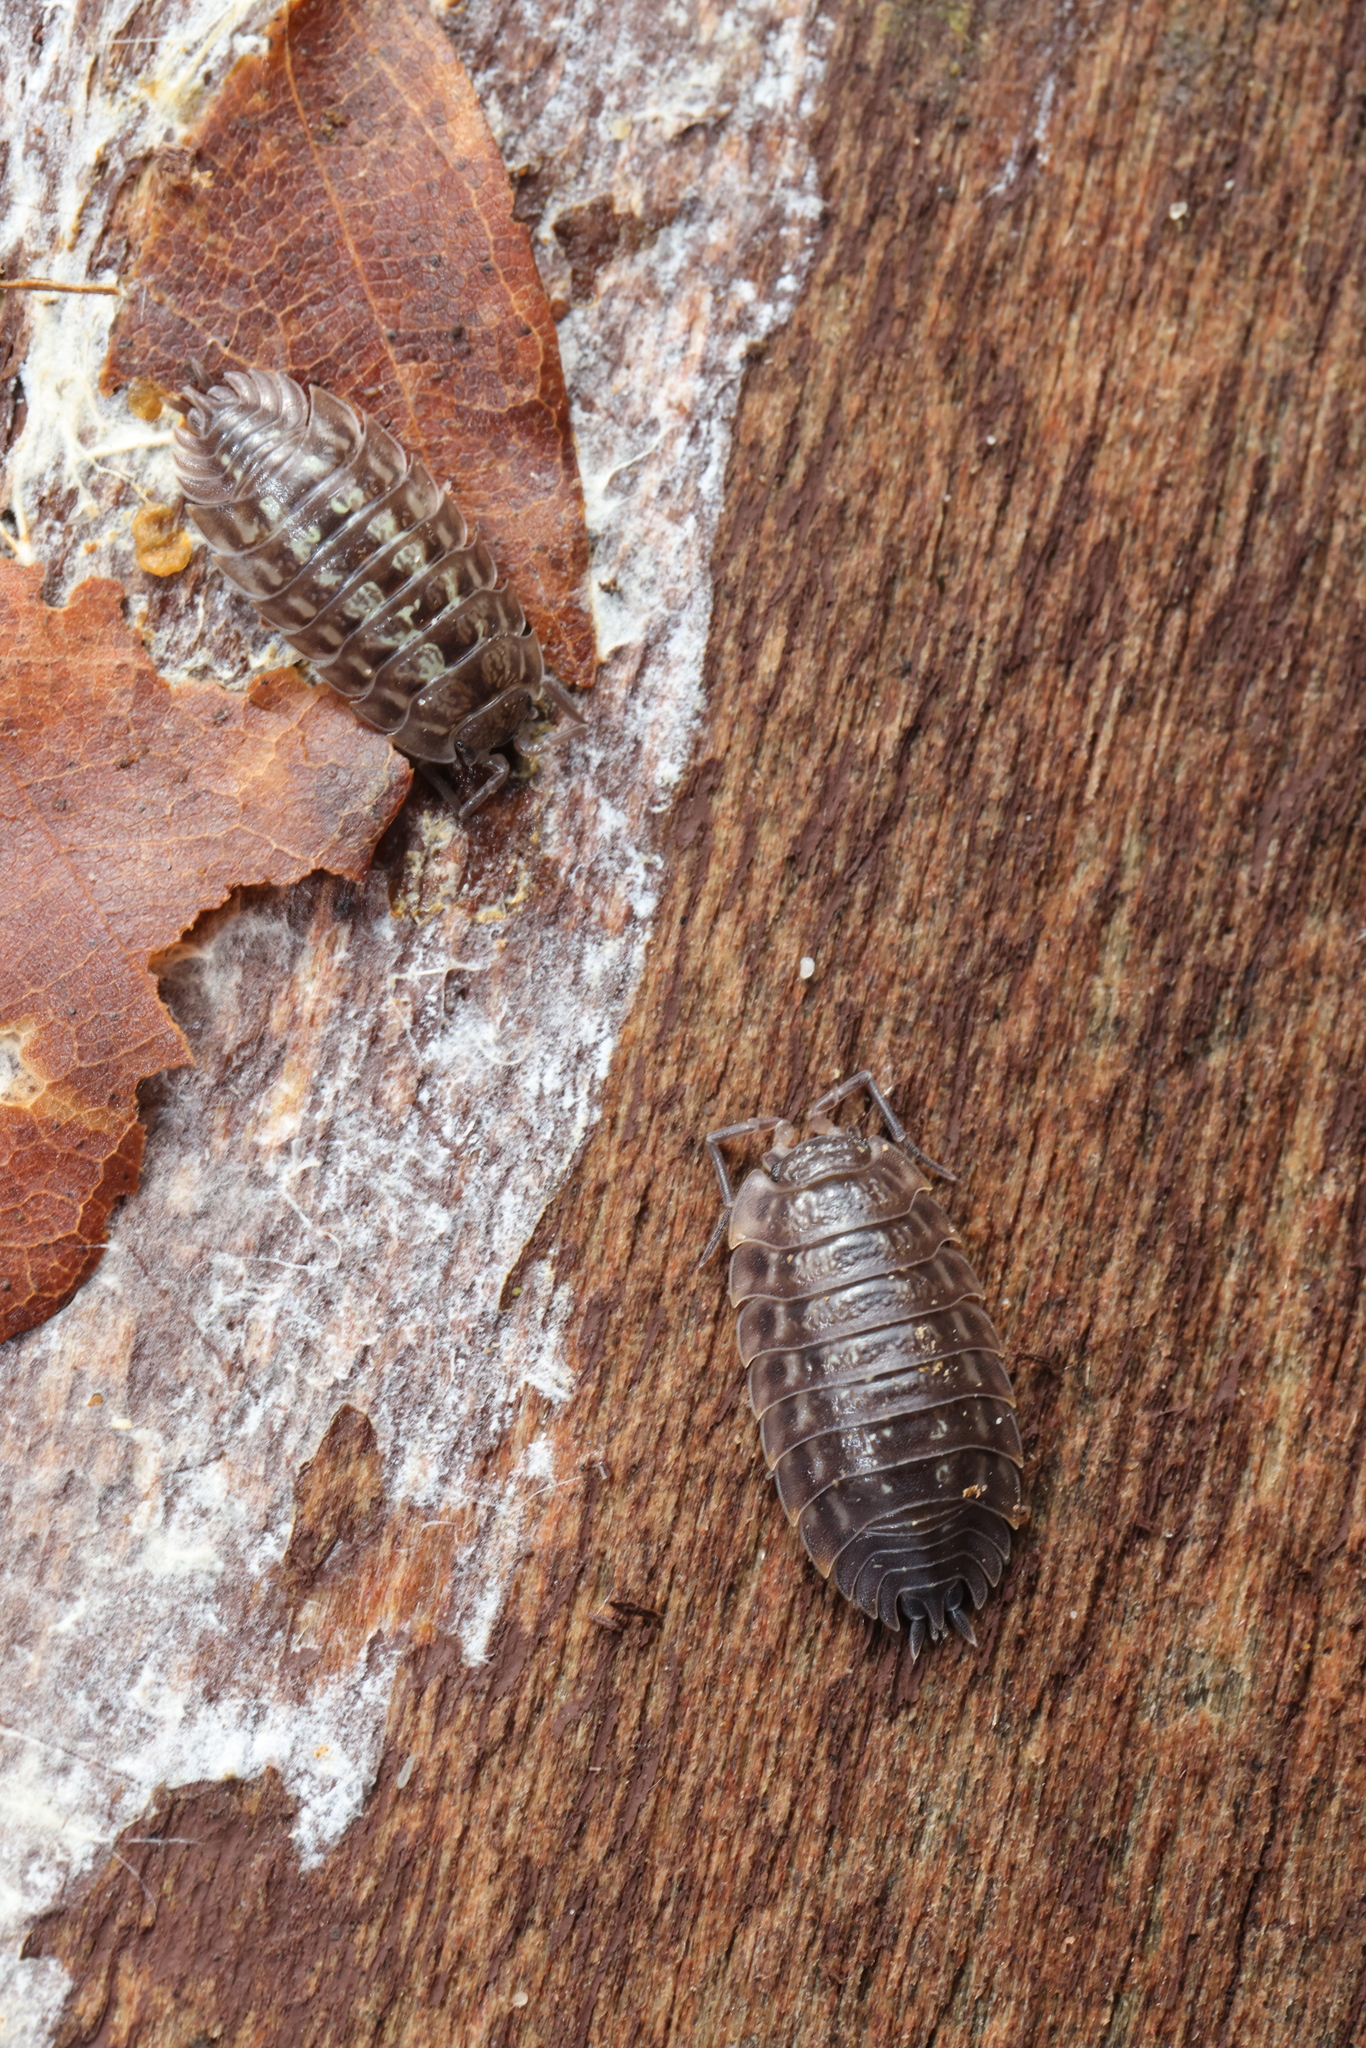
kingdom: Animalia
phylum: Arthropoda
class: Malacostraca
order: Isopoda
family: Oniscidae
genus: Oniscus
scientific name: Oniscus asellus
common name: Common shiny woodlouse
